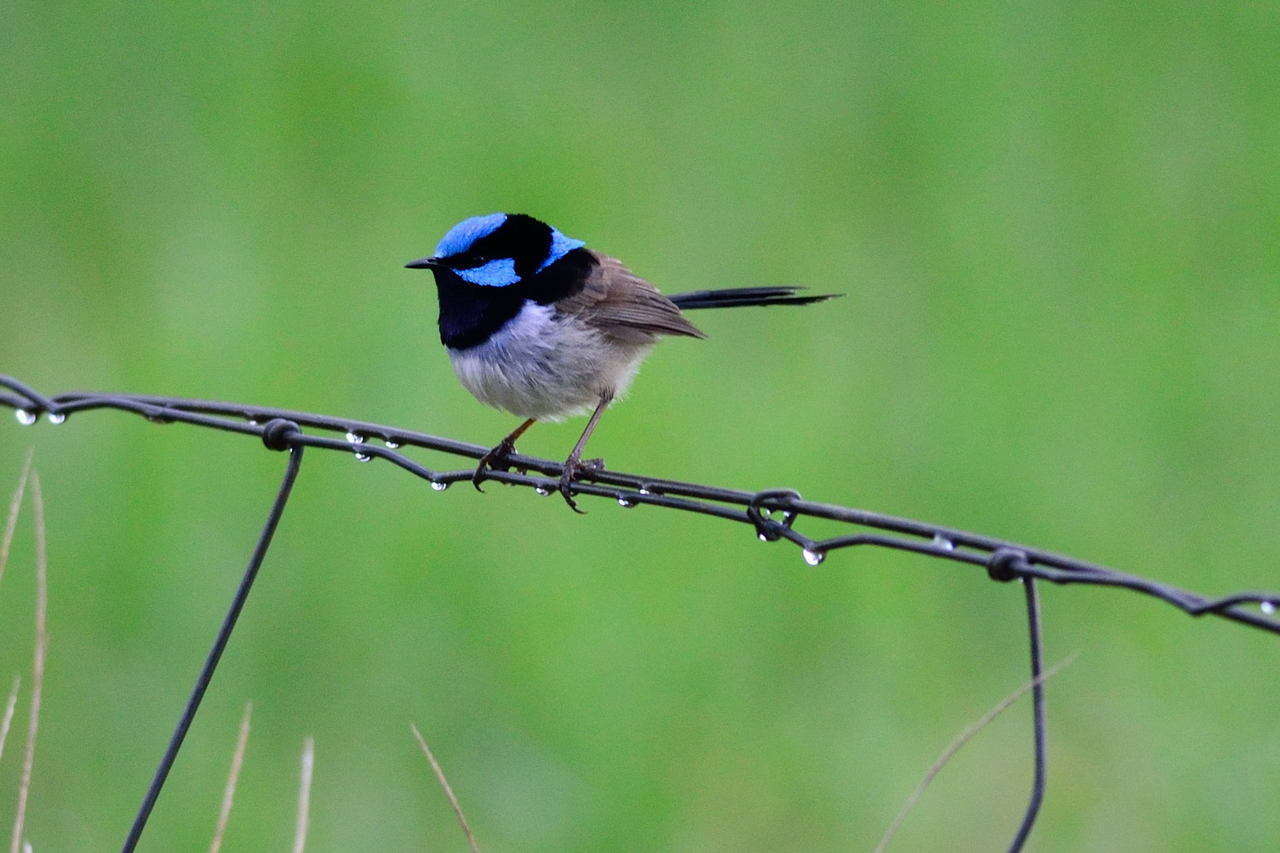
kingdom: Animalia
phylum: Chordata
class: Aves
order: Passeriformes
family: Maluridae
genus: Malurus
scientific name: Malurus cyaneus
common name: Superb fairywren
